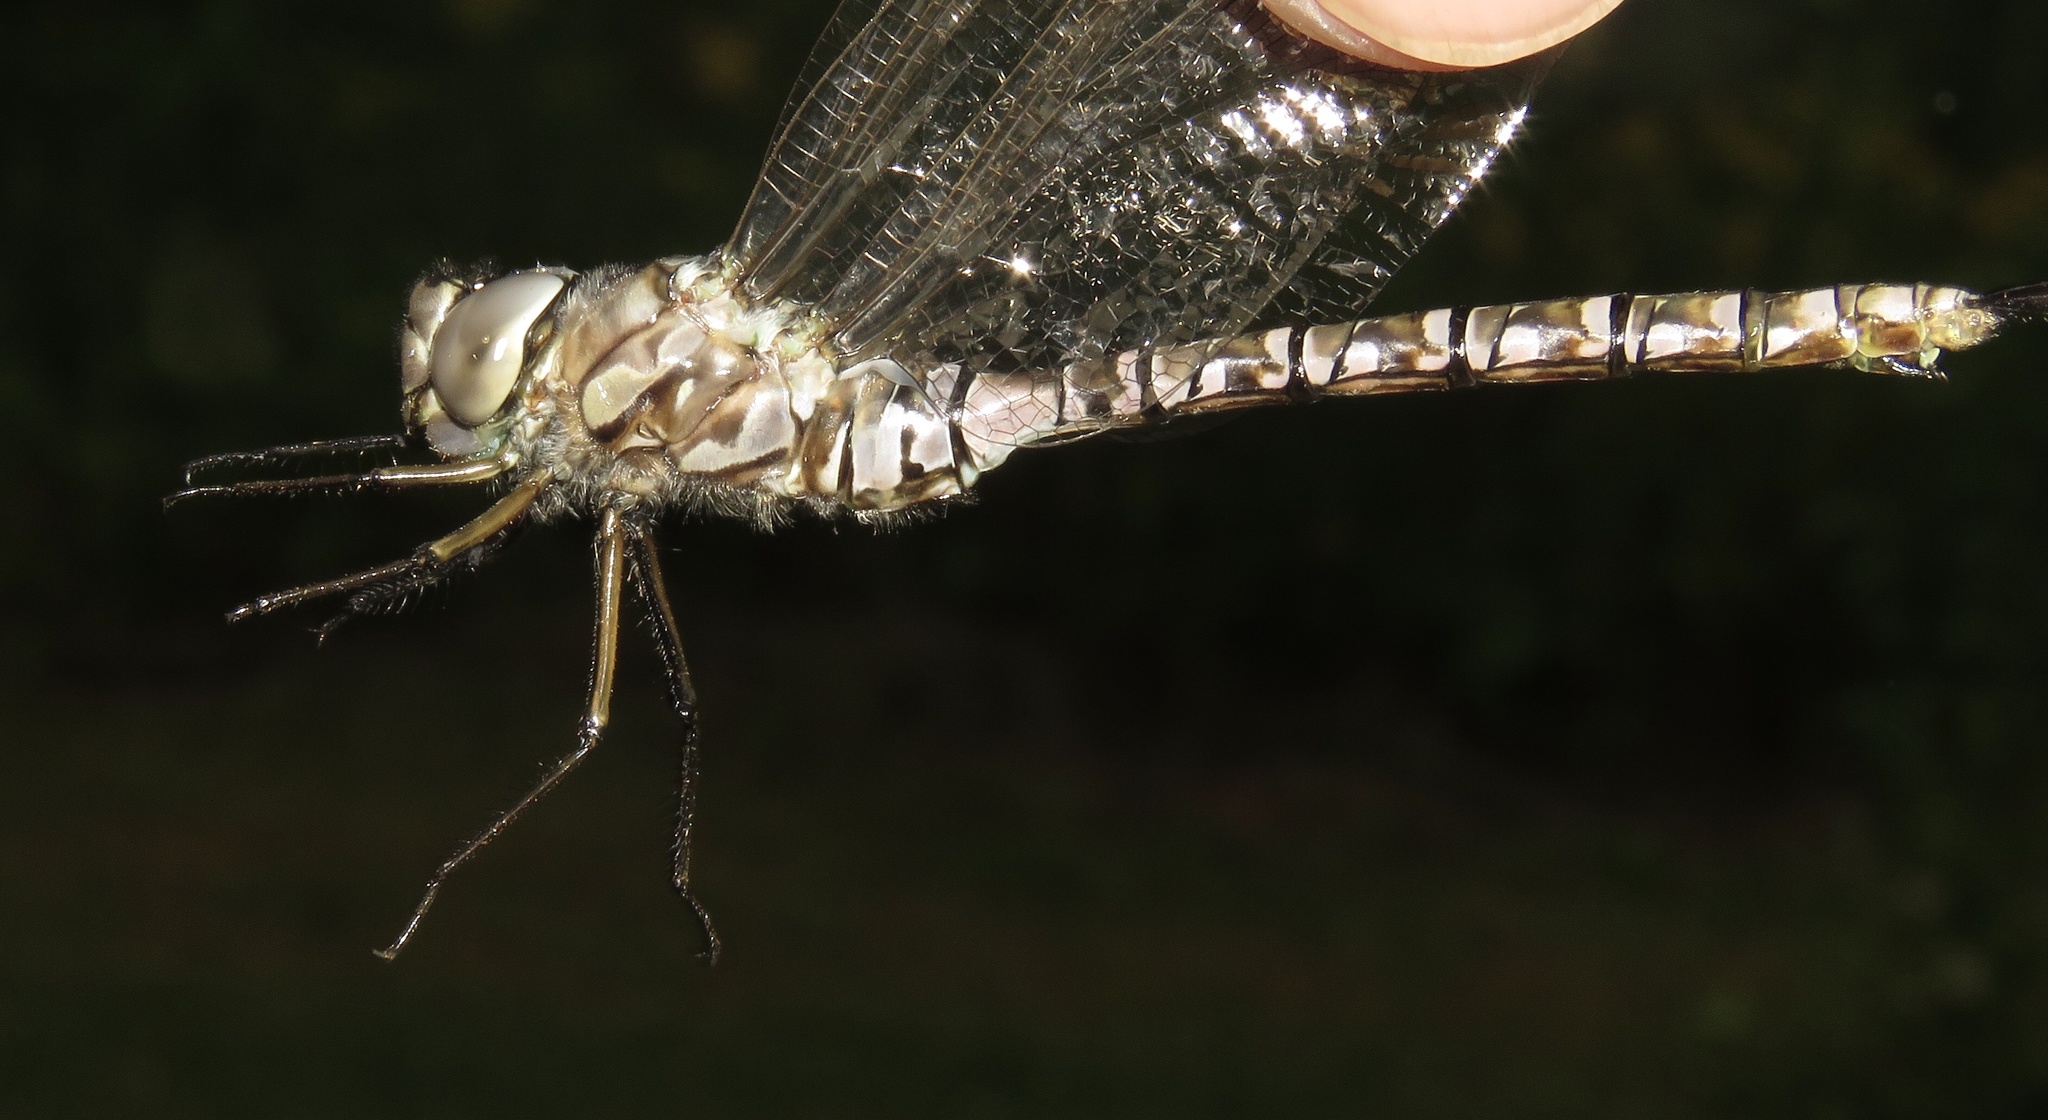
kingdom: Animalia
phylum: Arthropoda
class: Insecta
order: Odonata
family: Aeshnidae
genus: Aeshna
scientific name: Aeshna eremita
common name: Lake darner
